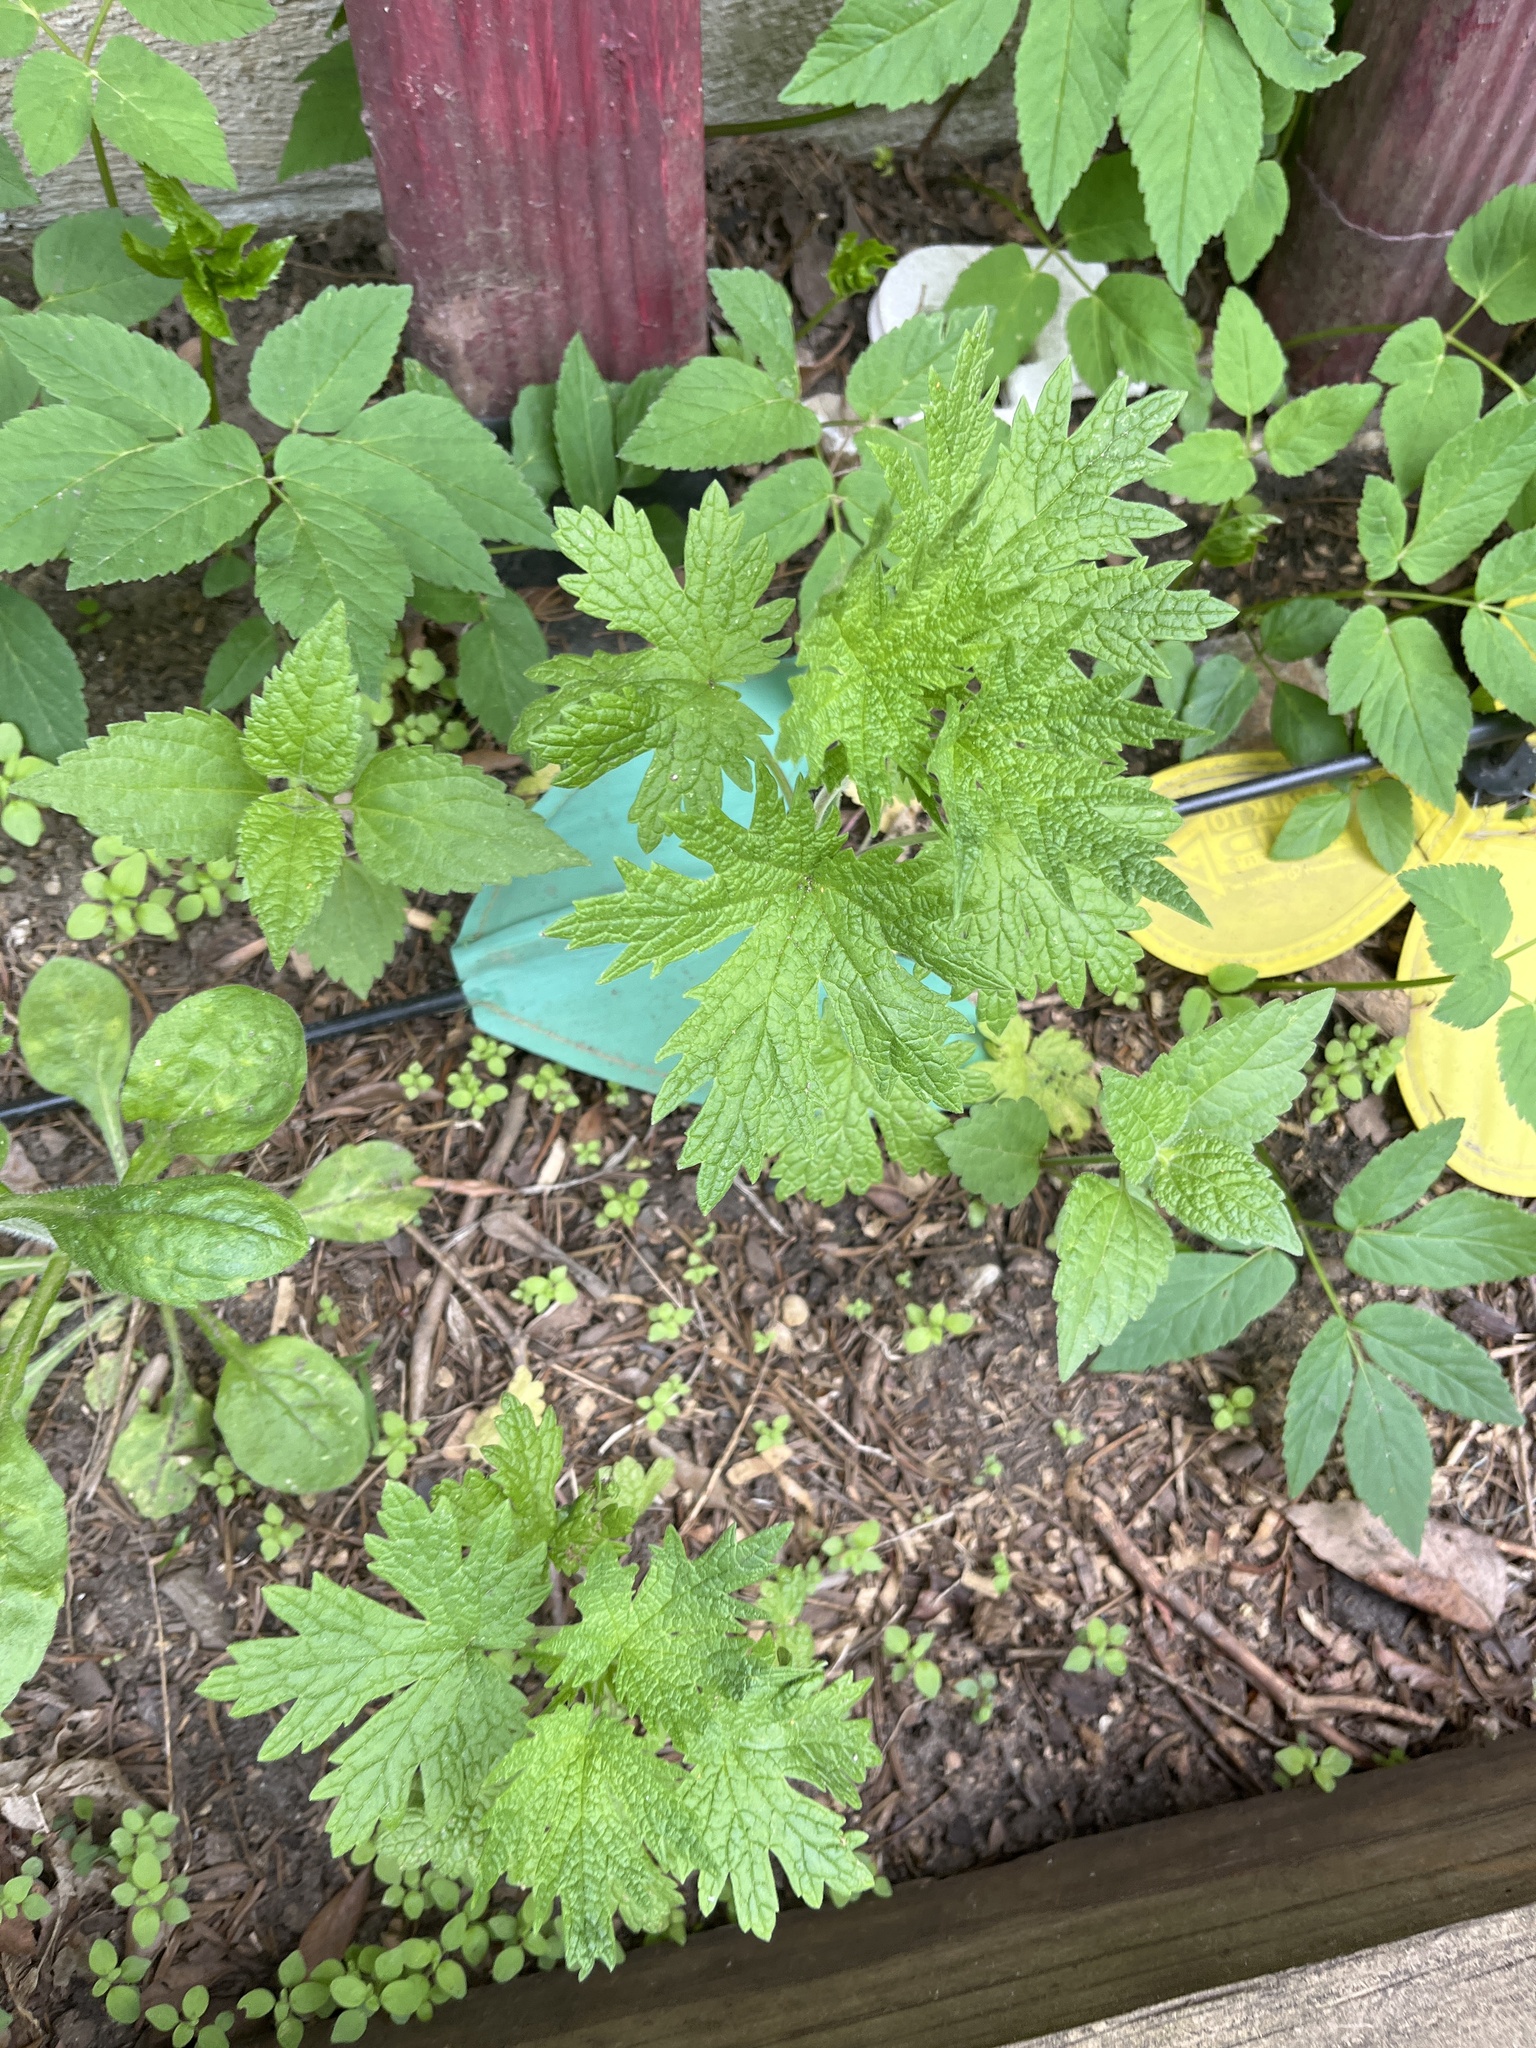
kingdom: Plantae
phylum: Tracheophyta
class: Magnoliopsida
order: Lamiales
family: Lamiaceae
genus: Leonurus
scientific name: Leonurus cardiaca
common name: Motherwort
